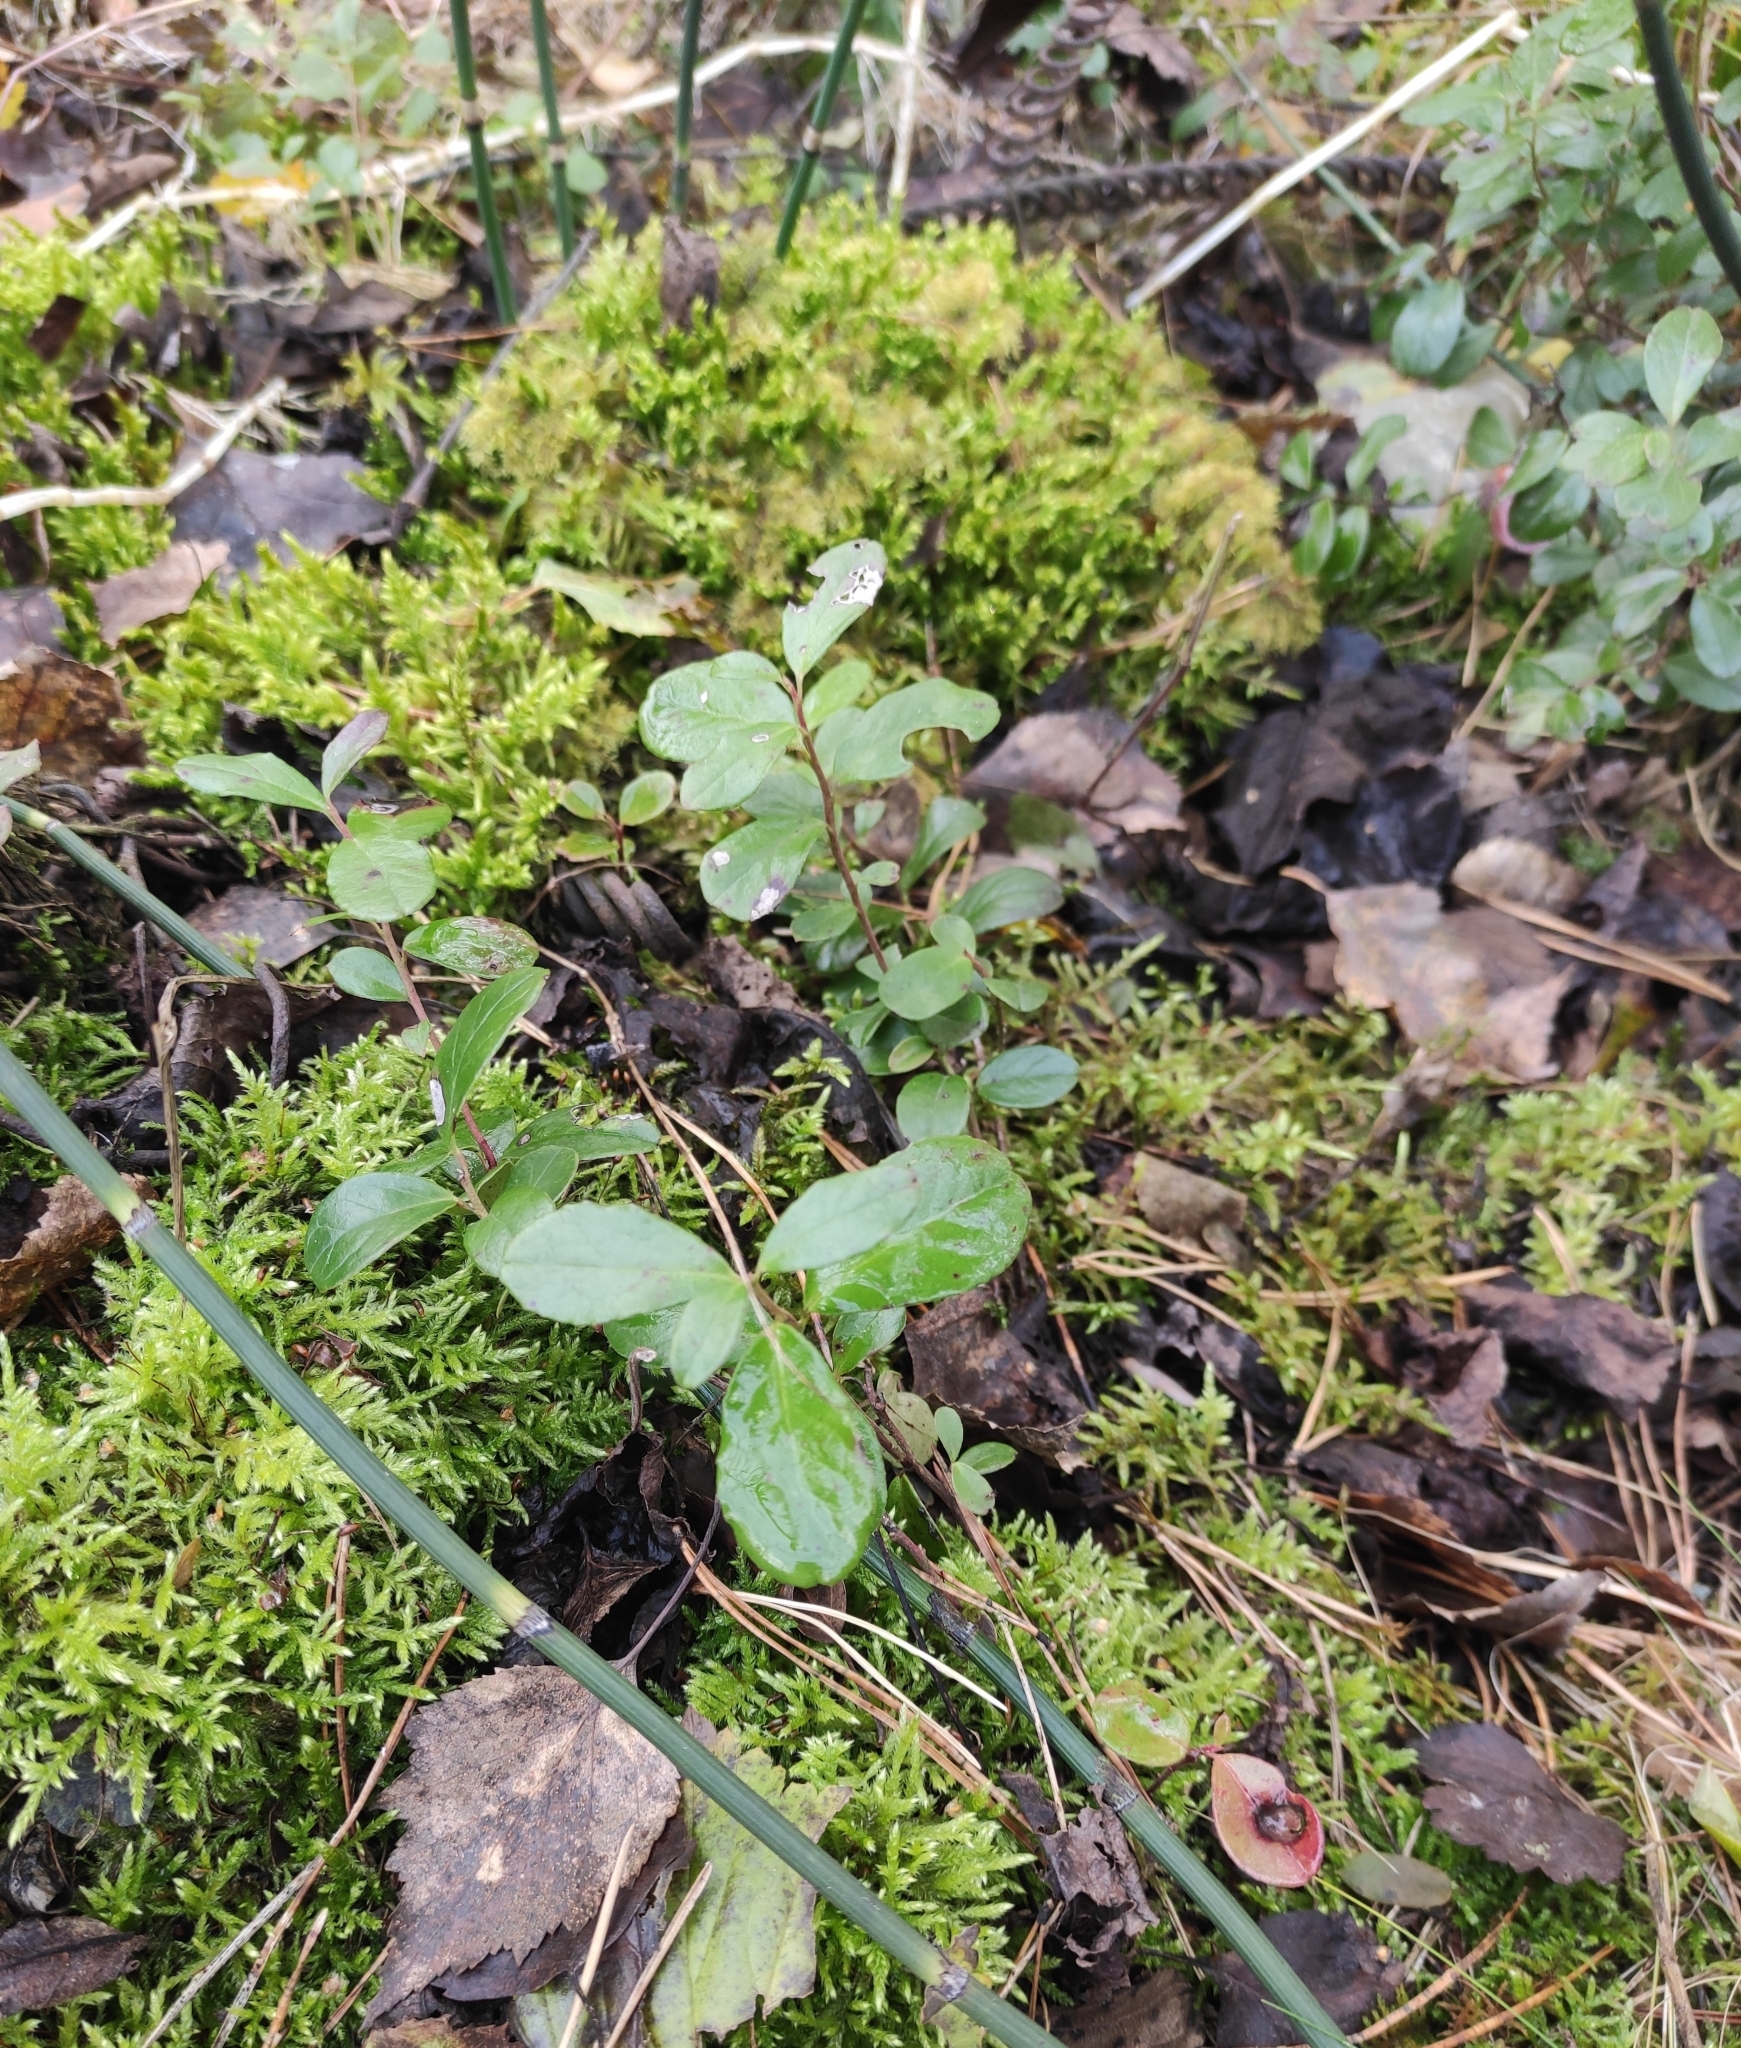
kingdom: Plantae
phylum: Tracheophyta
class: Magnoliopsida
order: Ericales
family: Ericaceae
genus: Vaccinium
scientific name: Vaccinium vitis-idaea
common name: Cowberry
